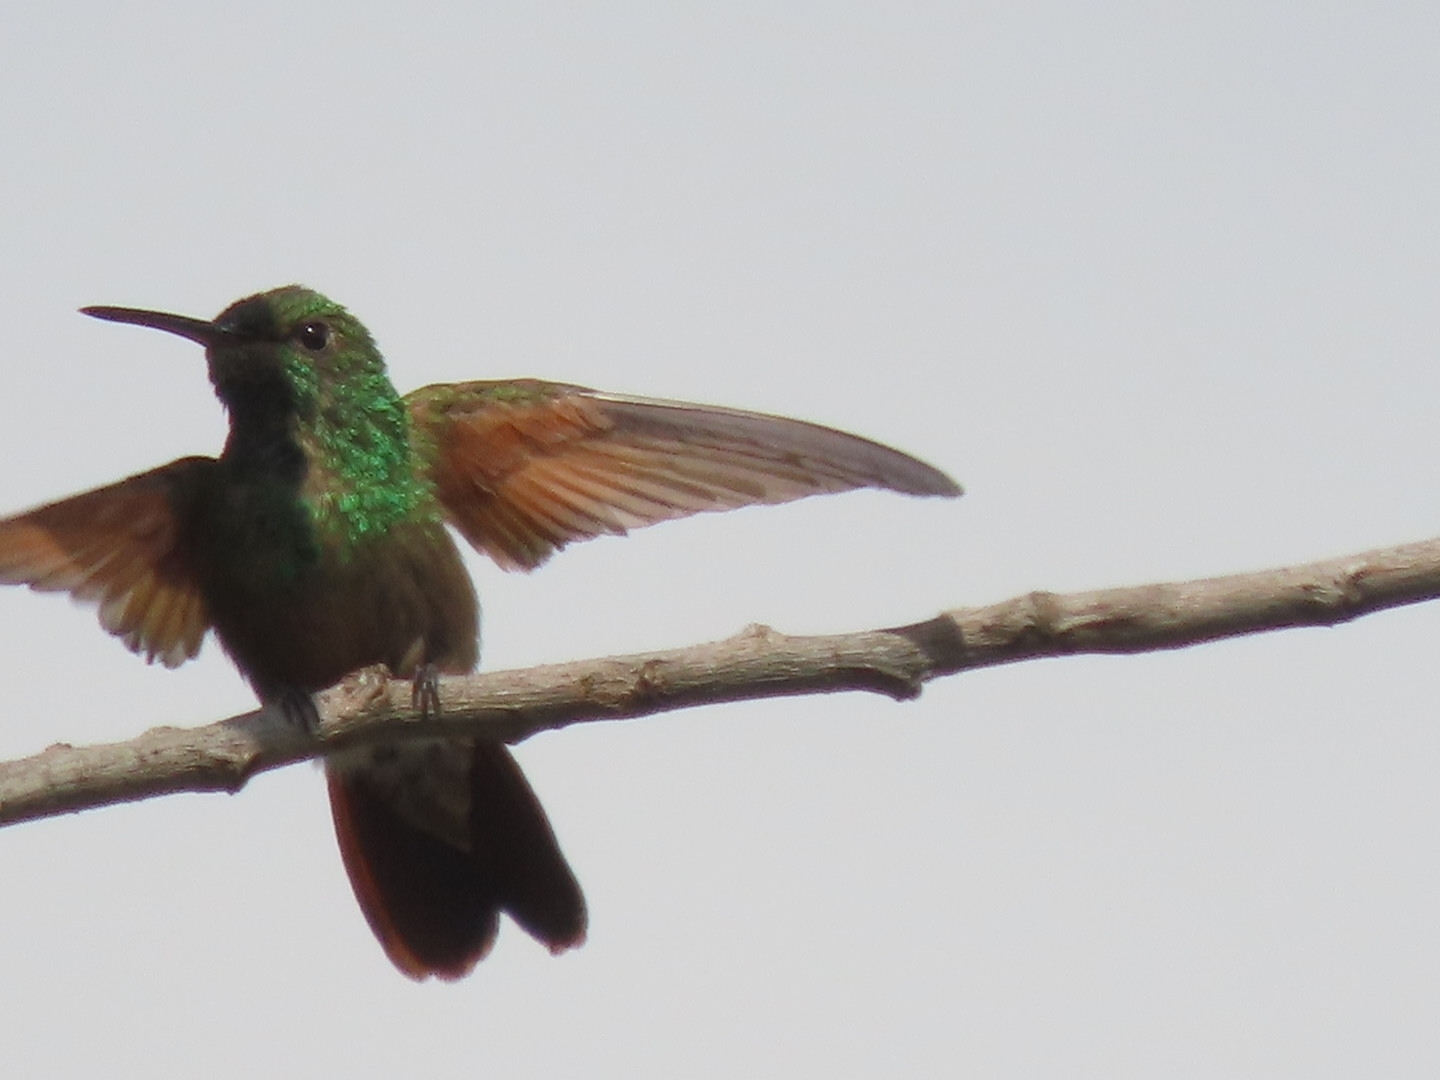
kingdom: Animalia
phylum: Chordata
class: Aves
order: Apodiformes
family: Trochilidae
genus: Saucerottia
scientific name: Saucerottia beryllina
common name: Berylline hummingbird
